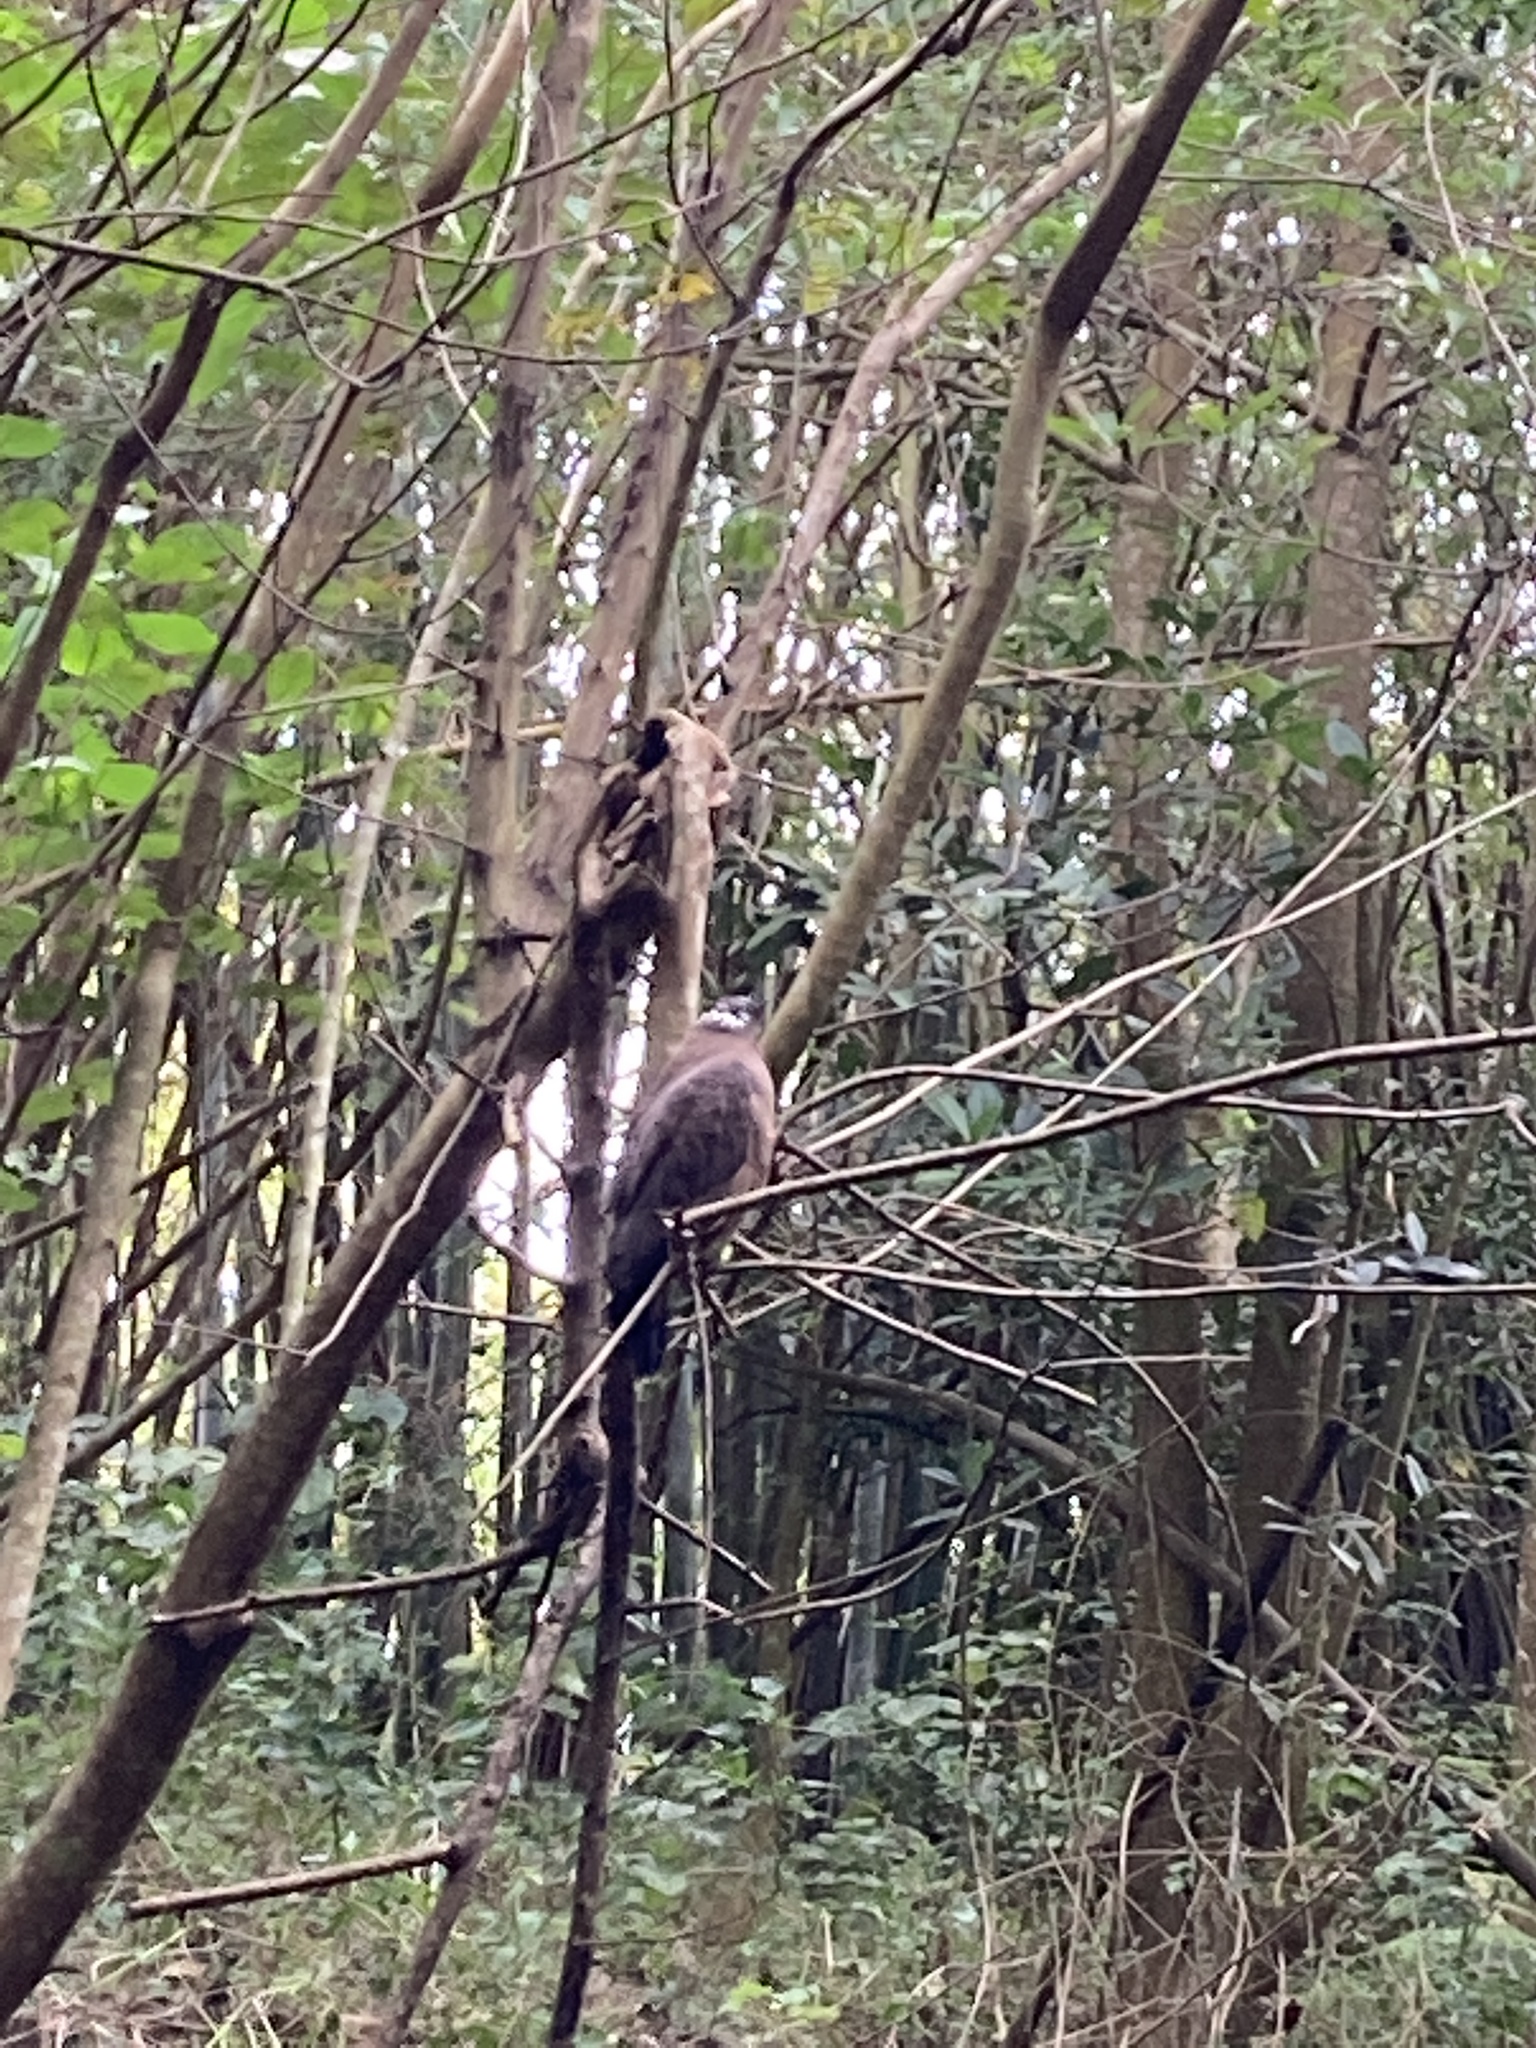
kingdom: Animalia
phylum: Chordata
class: Aves
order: Accipitriformes
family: Accipitridae
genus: Spilornis
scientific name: Spilornis cheela
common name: Crested serpent eagle
